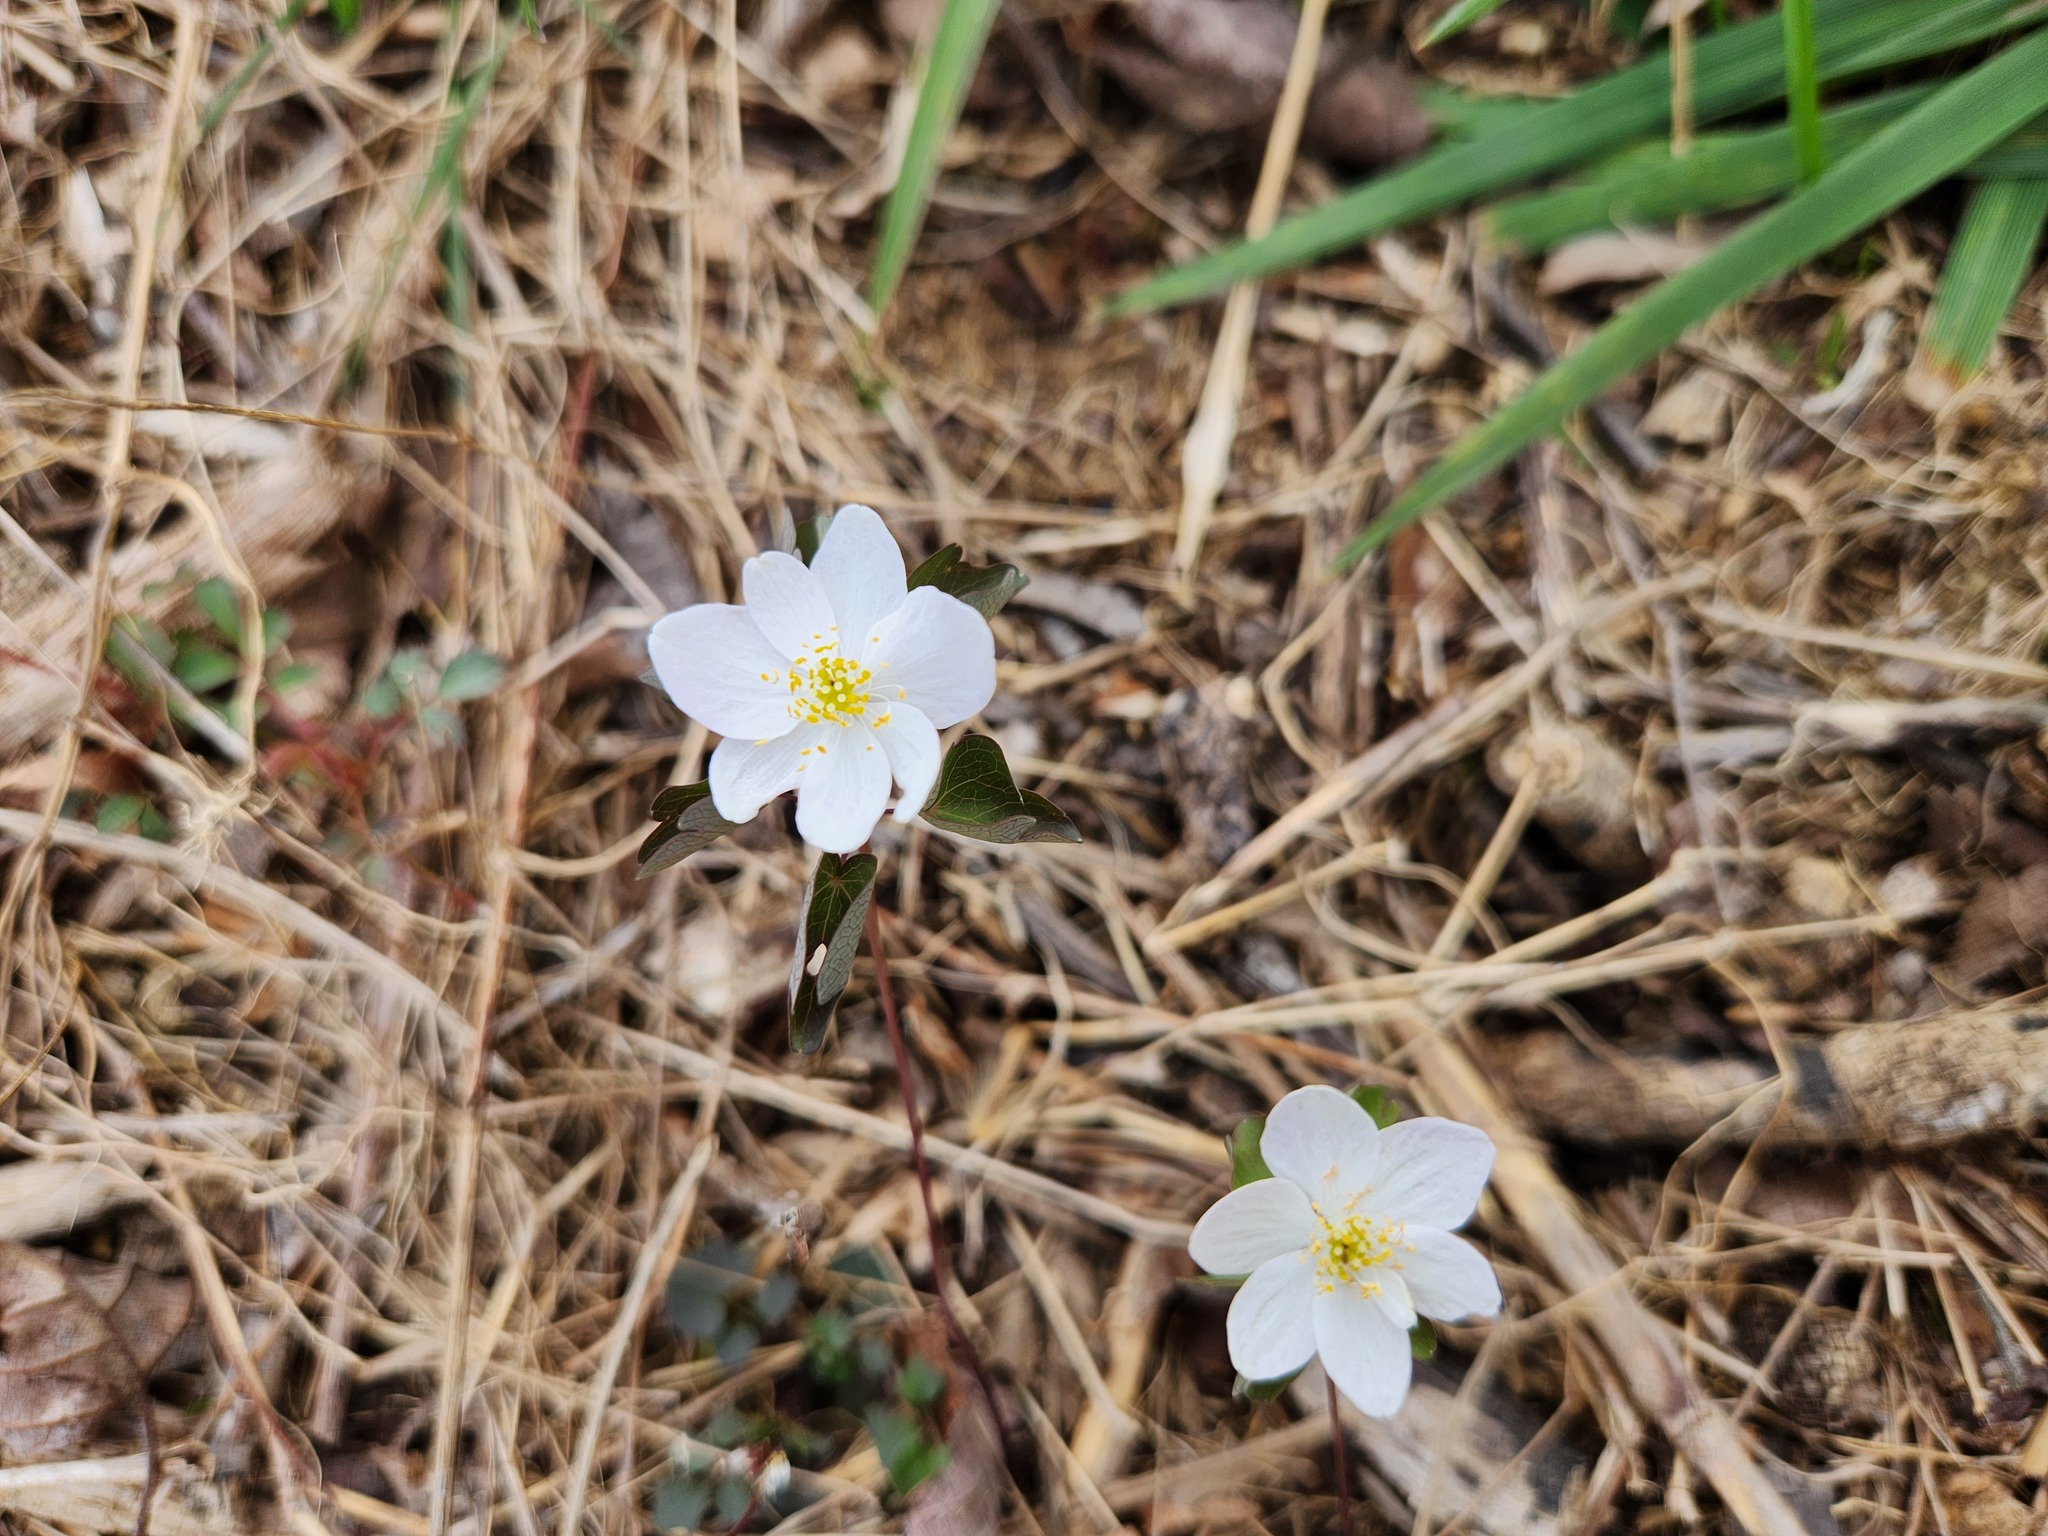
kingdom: Plantae
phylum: Tracheophyta
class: Magnoliopsida
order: Ranunculales
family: Ranunculaceae
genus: Thalictrum
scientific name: Thalictrum thalictroides
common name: Rue-anemone
